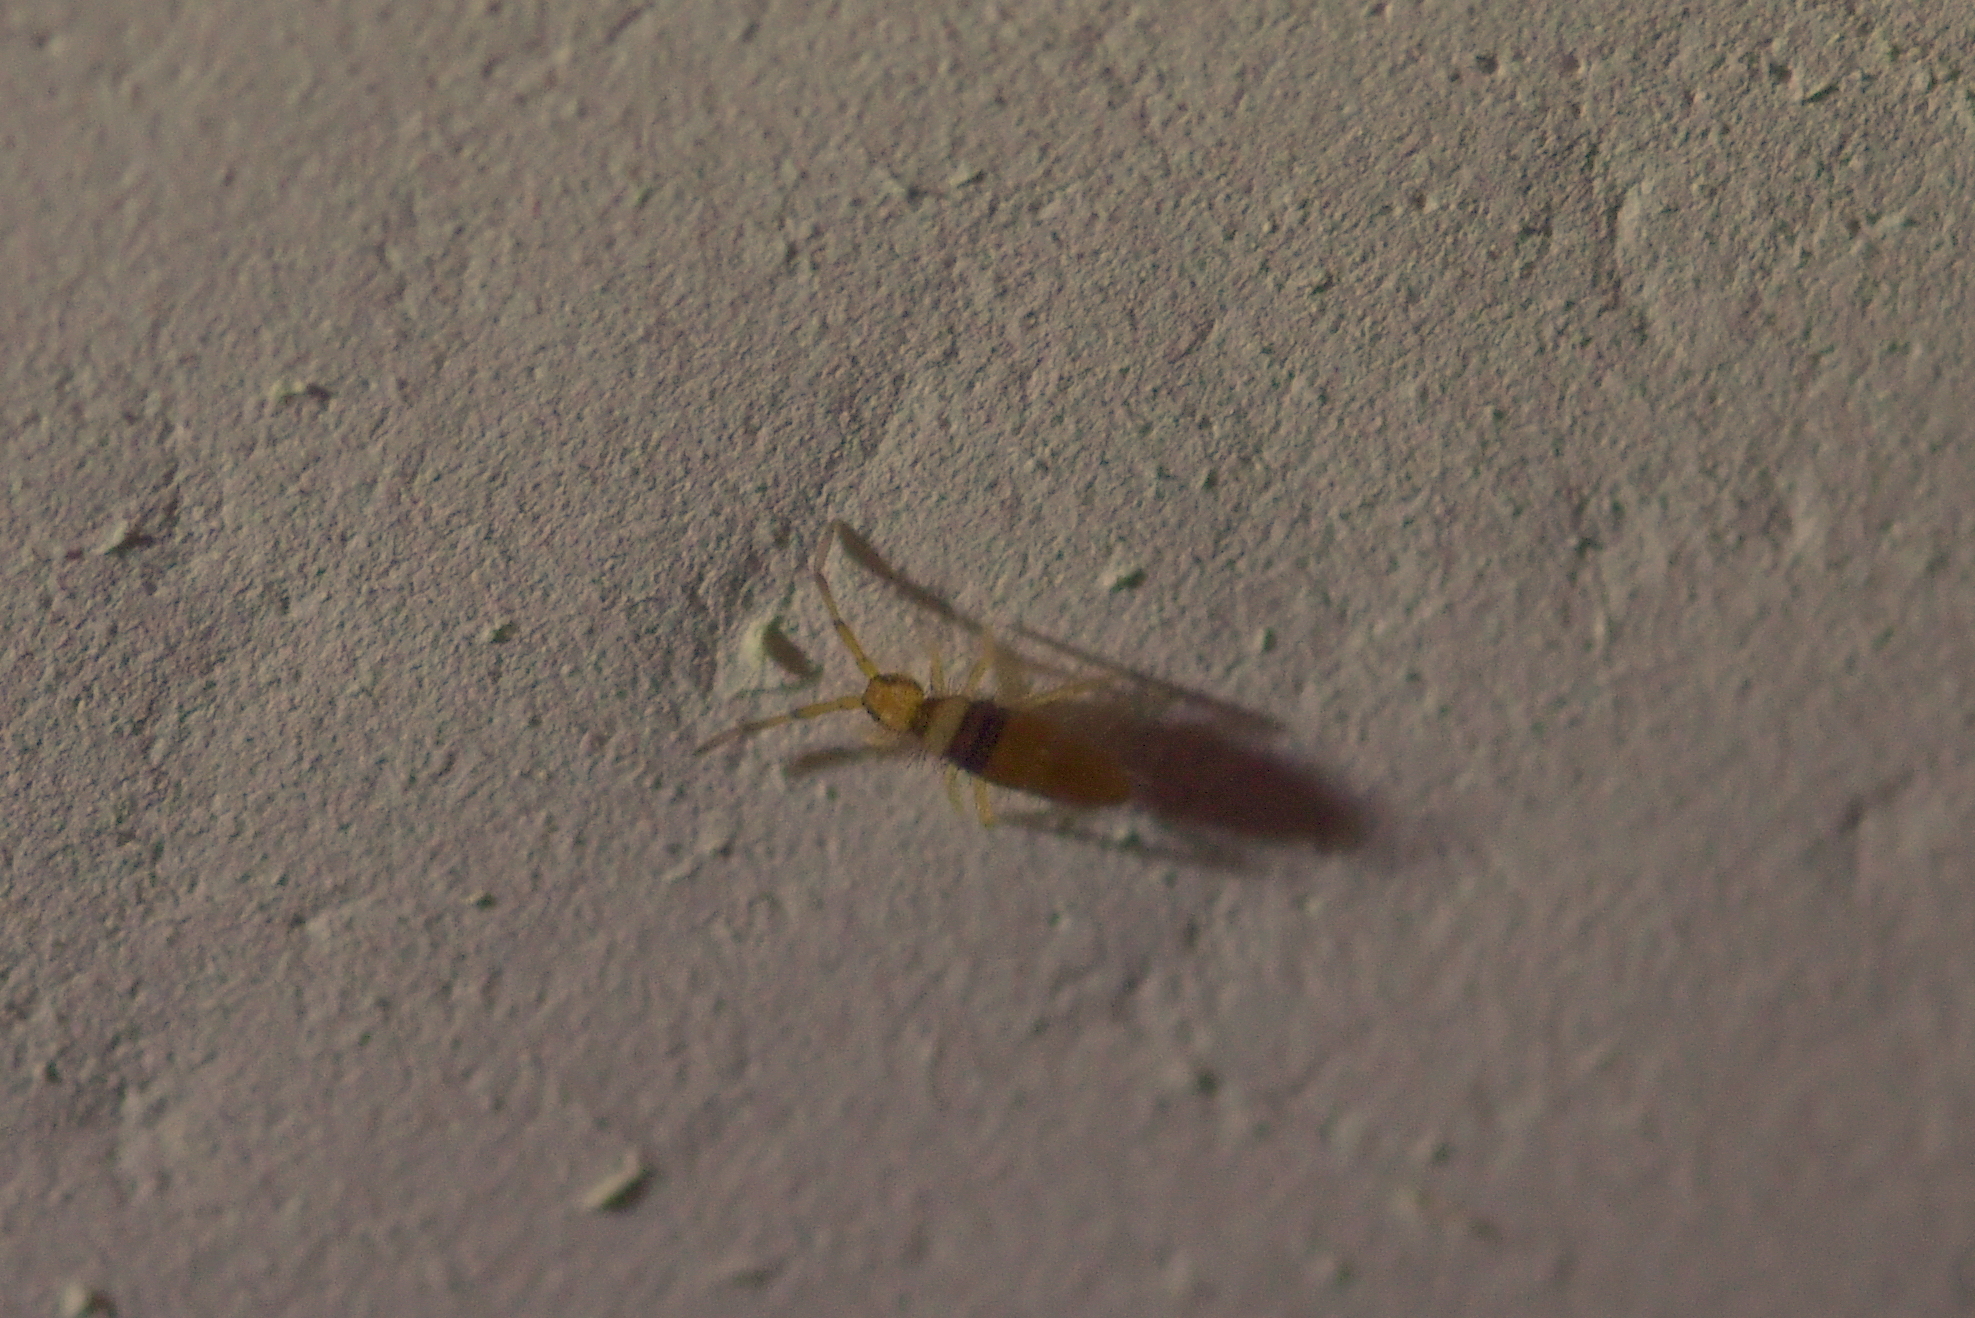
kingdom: Animalia
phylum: Arthropoda
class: Collembola
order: Entomobryomorpha
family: Entomobryidae
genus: Entomobrya
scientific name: Entomobrya nigrocincta
